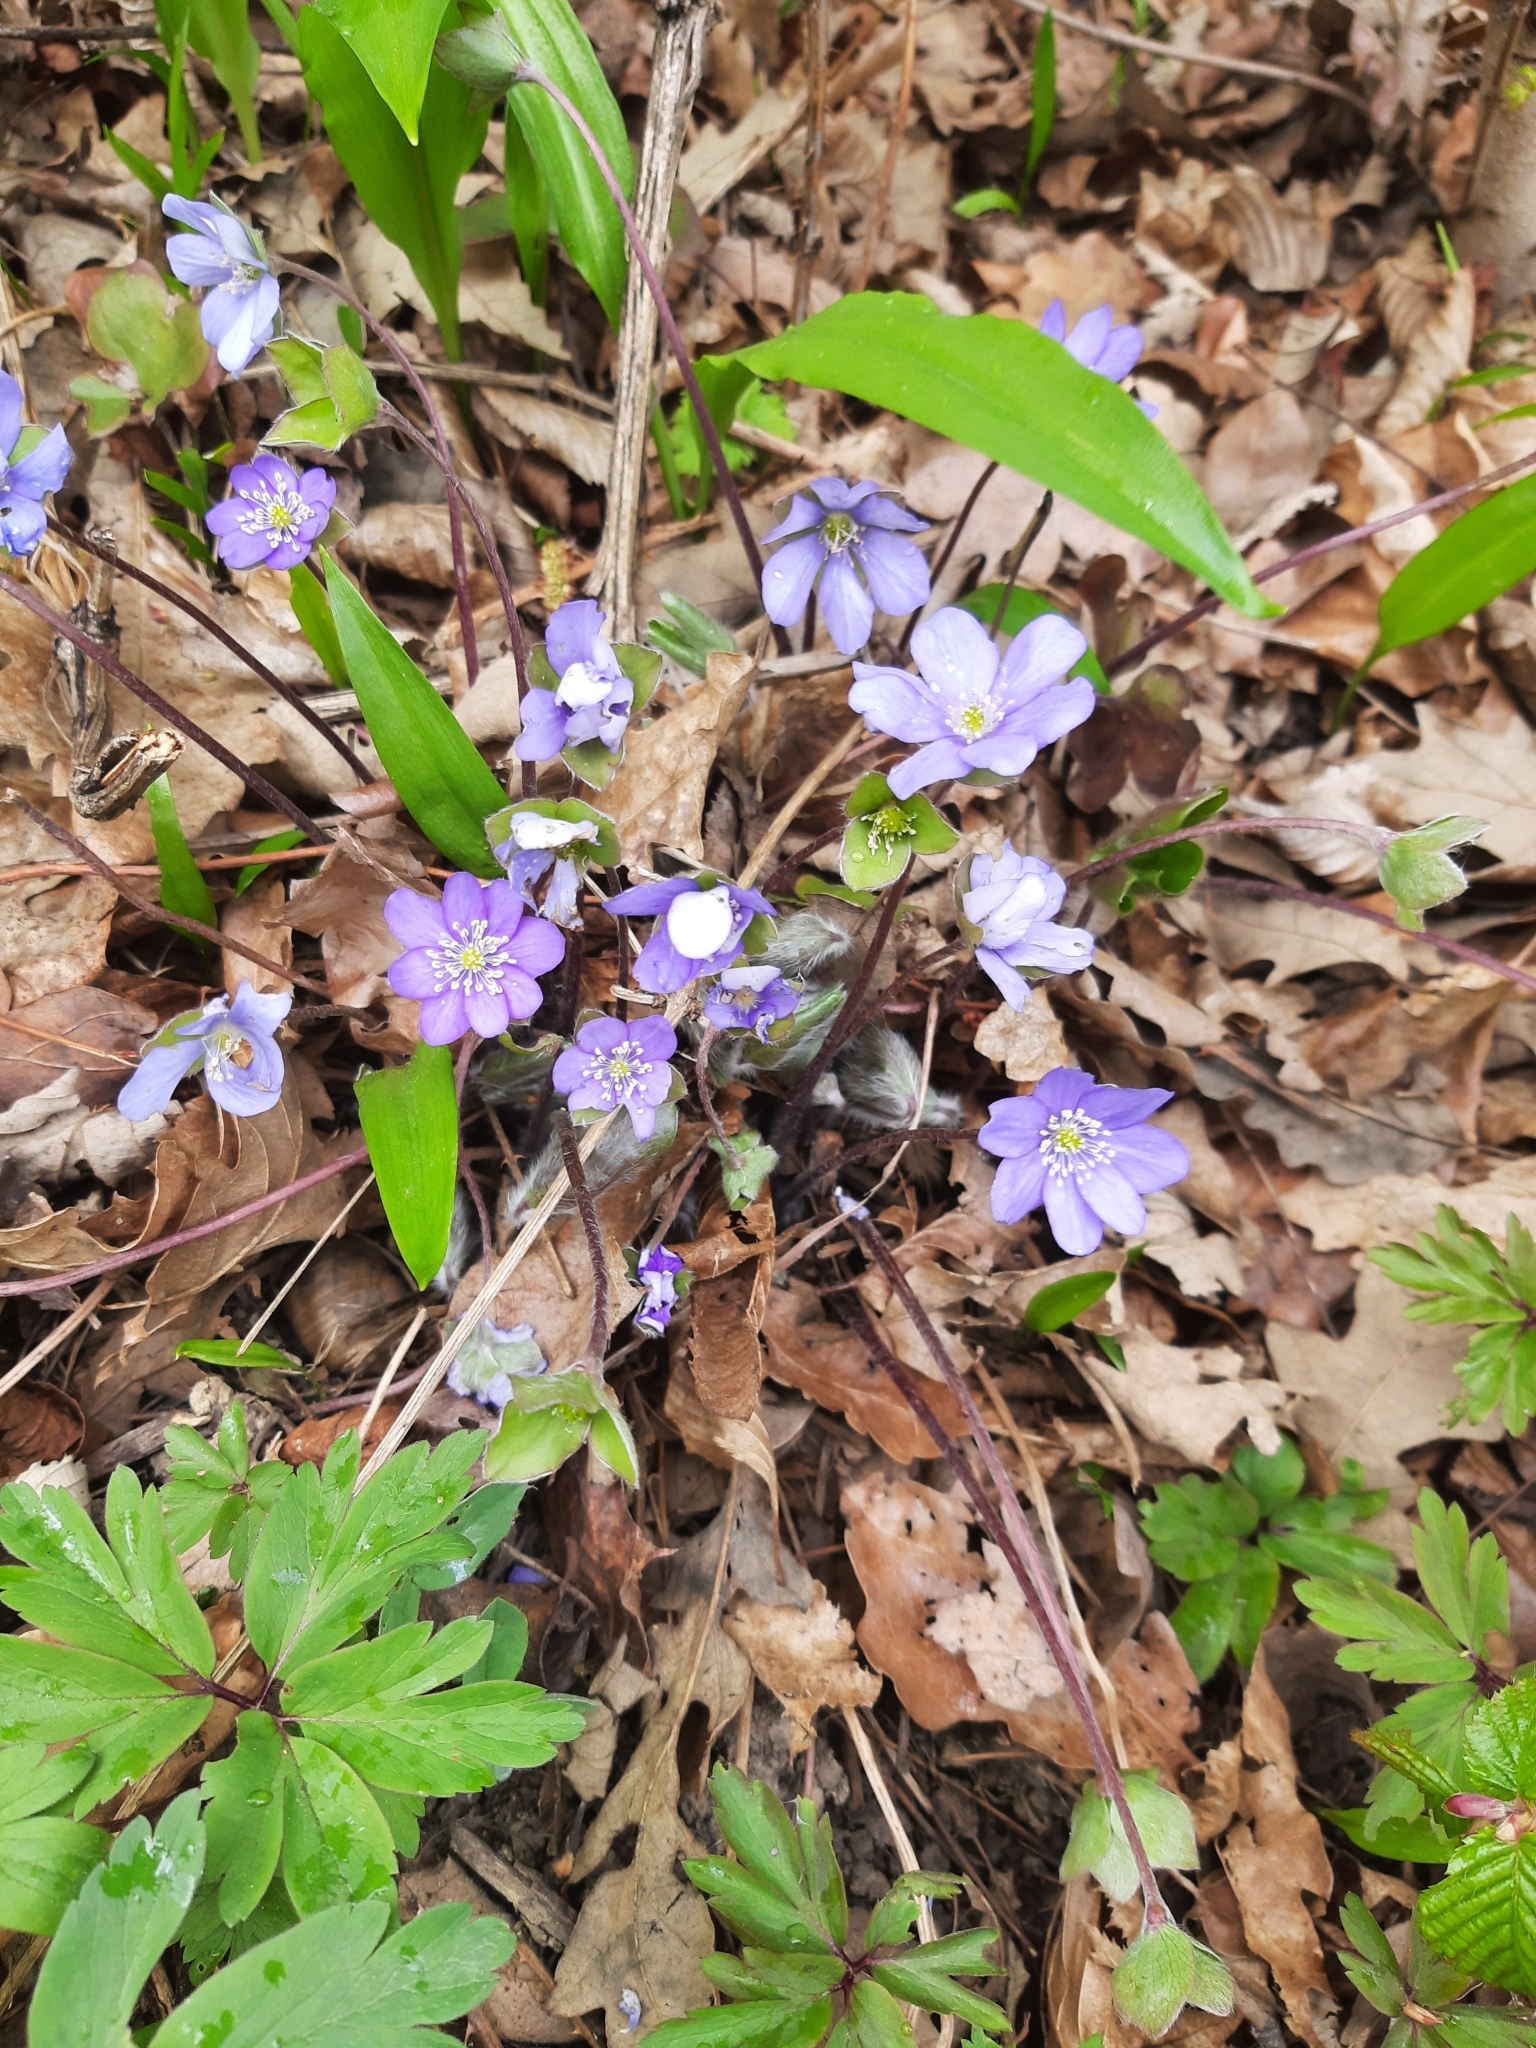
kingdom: Plantae
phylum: Tracheophyta
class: Magnoliopsida
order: Ranunculales
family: Ranunculaceae
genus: Hepatica
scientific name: Hepatica nobilis
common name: Liverleaf
